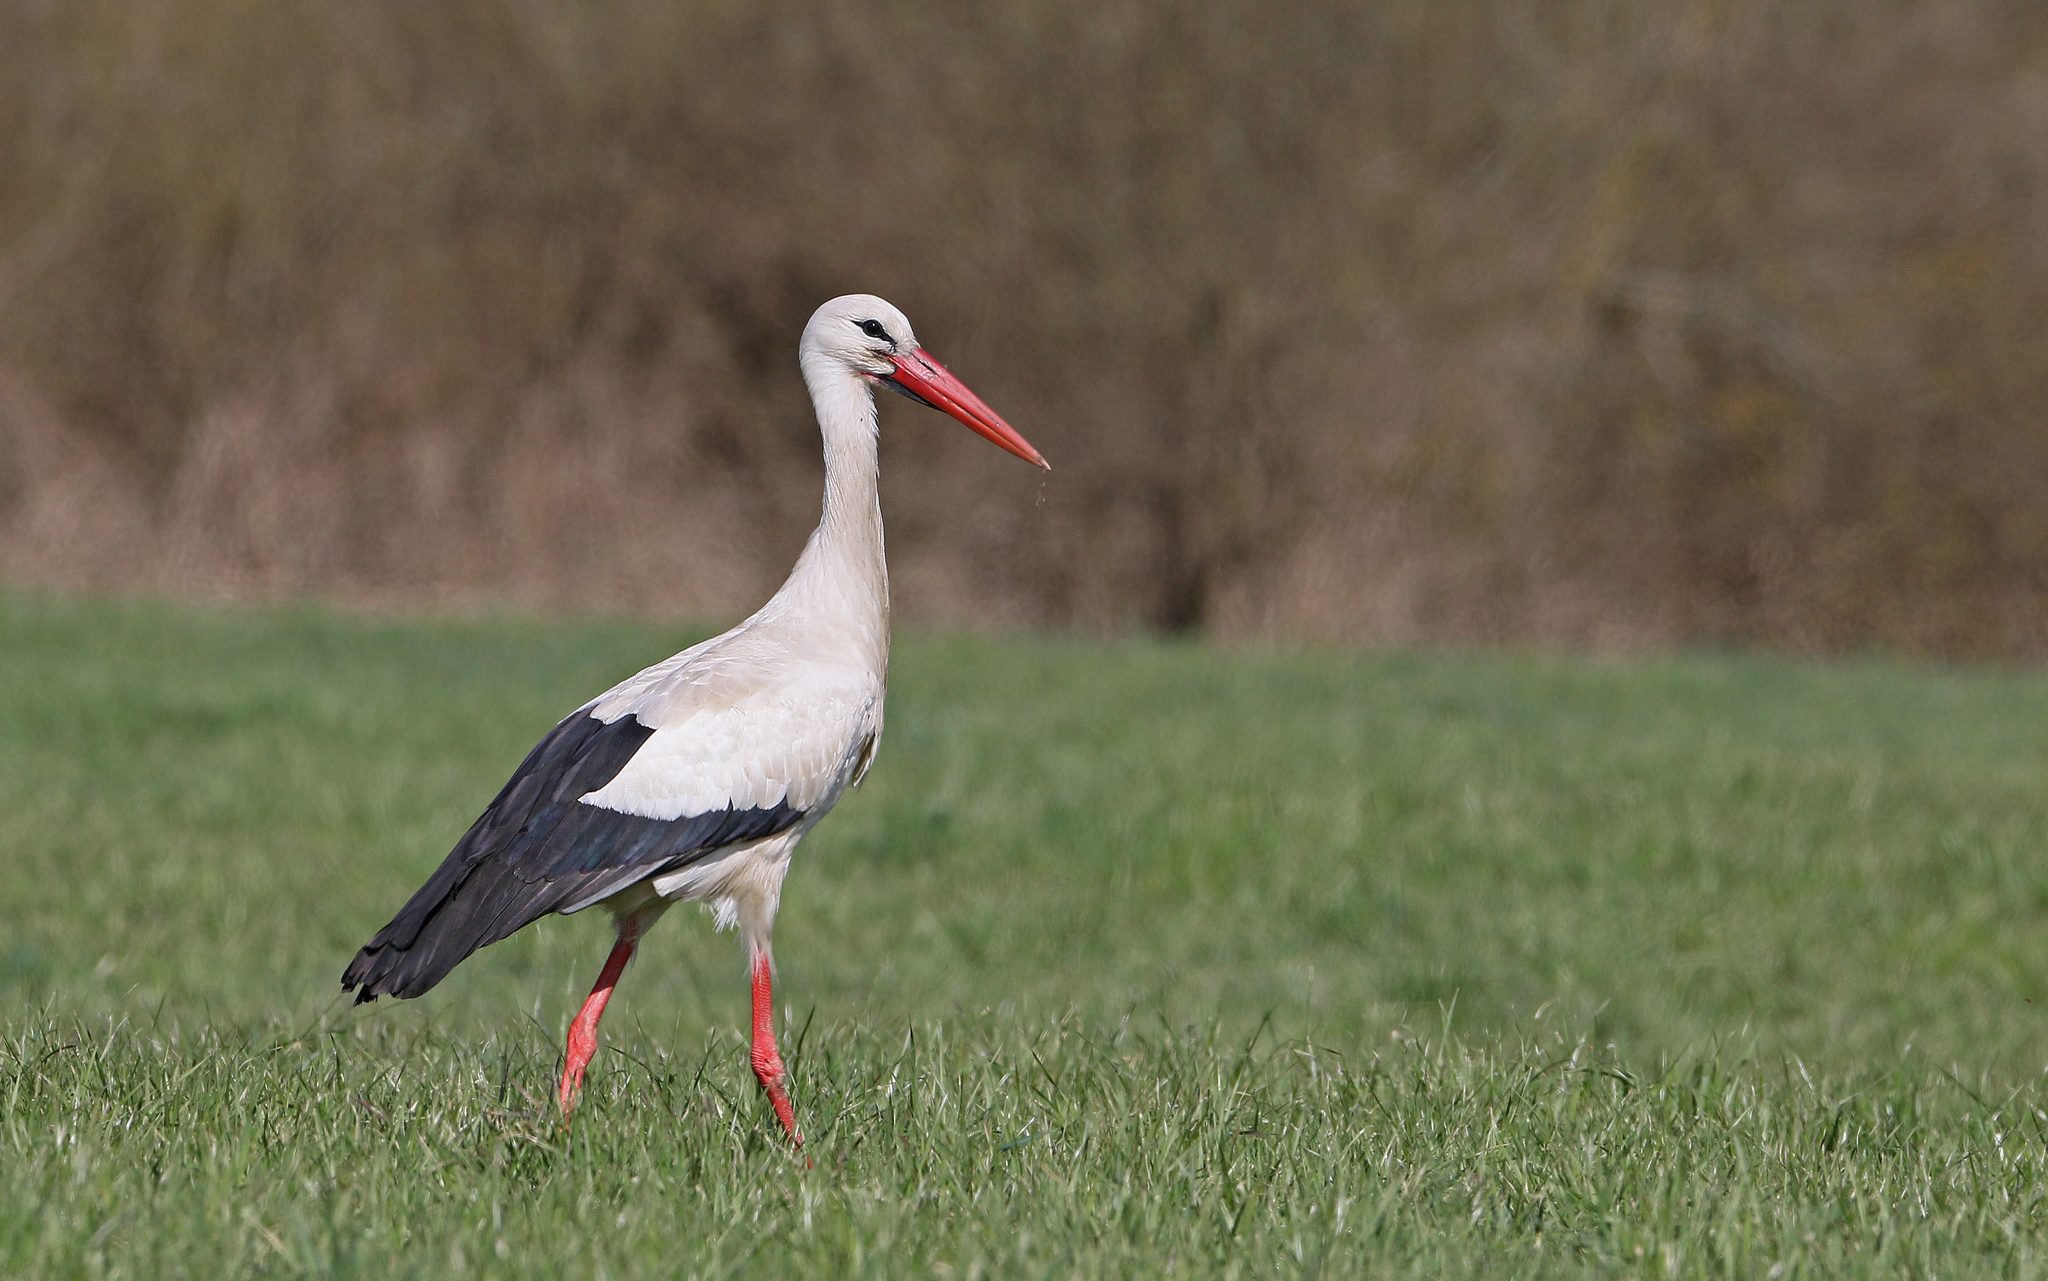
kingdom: Animalia
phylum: Chordata
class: Aves
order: Ciconiiformes
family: Ciconiidae
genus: Ciconia
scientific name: Ciconia ciconia
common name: White stork
